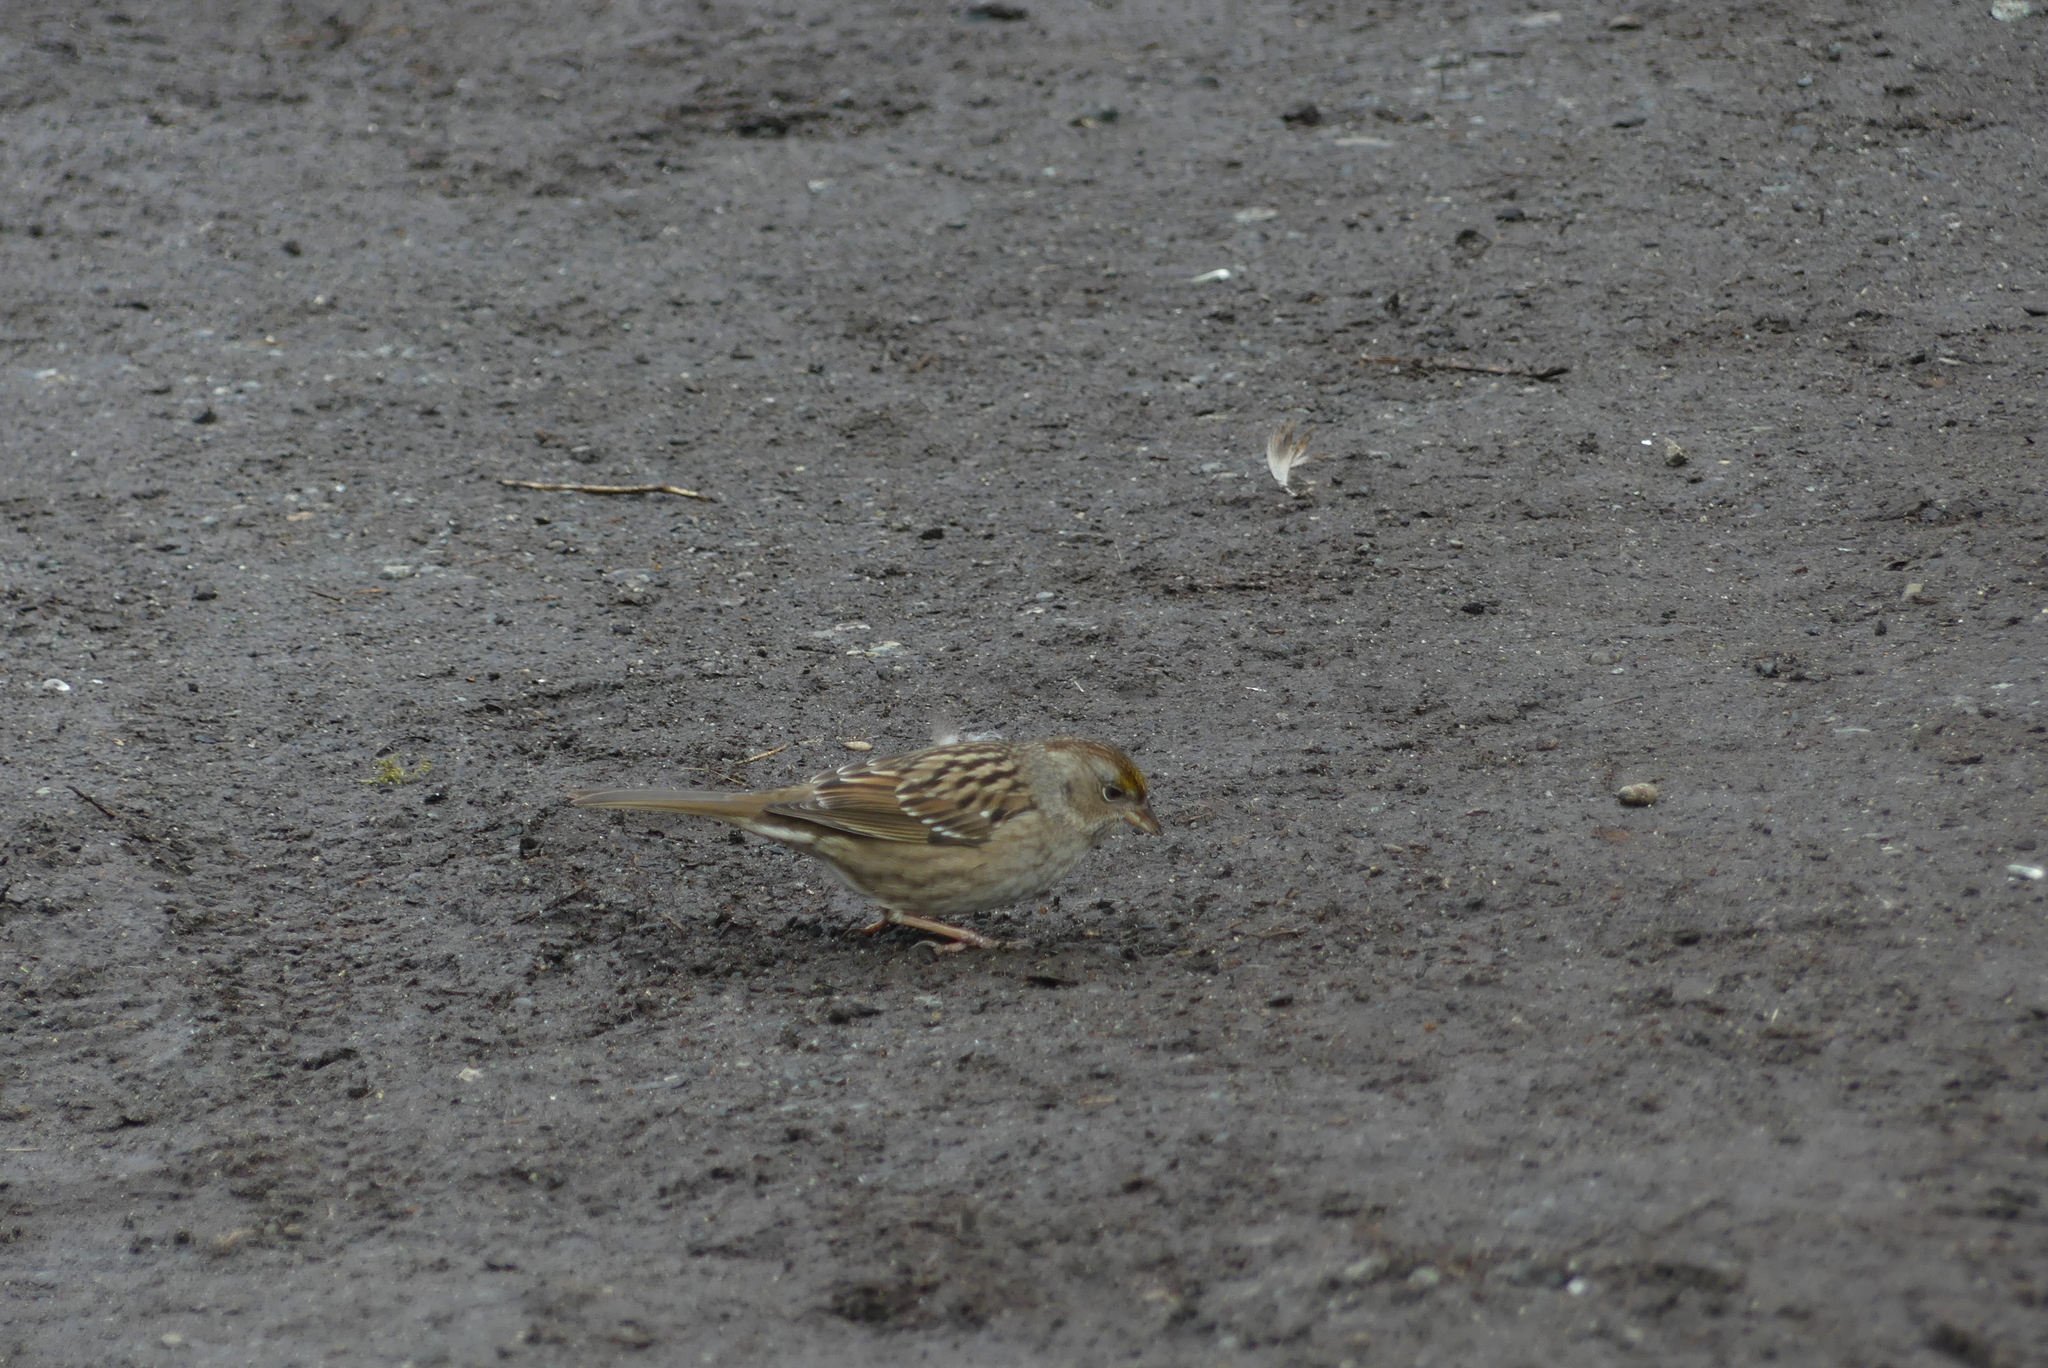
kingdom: Animalia
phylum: Chordata
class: Aves
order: Passeriformes
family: Passerellidae
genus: Zonotrichia
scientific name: Zonotrichia atricapilla
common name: Golden-crowned sparrow
